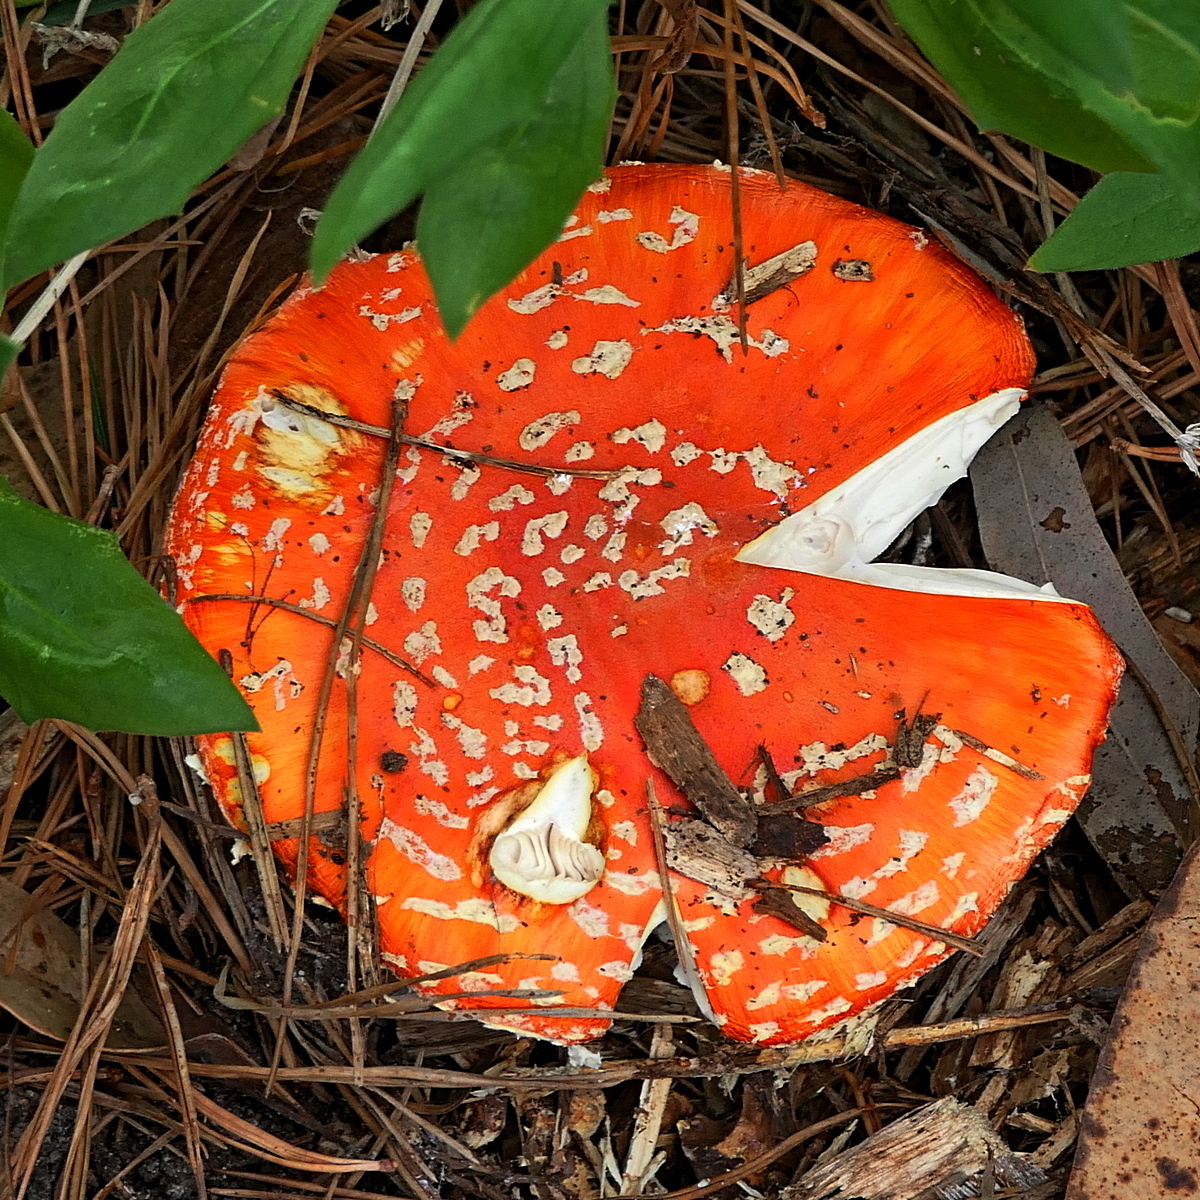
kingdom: Fungi
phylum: Basidiomycota
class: Agaricomycetes
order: Agaricales
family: Amanitaceae
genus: Amanita
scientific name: Amanita muscaria
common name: Fly agaric
